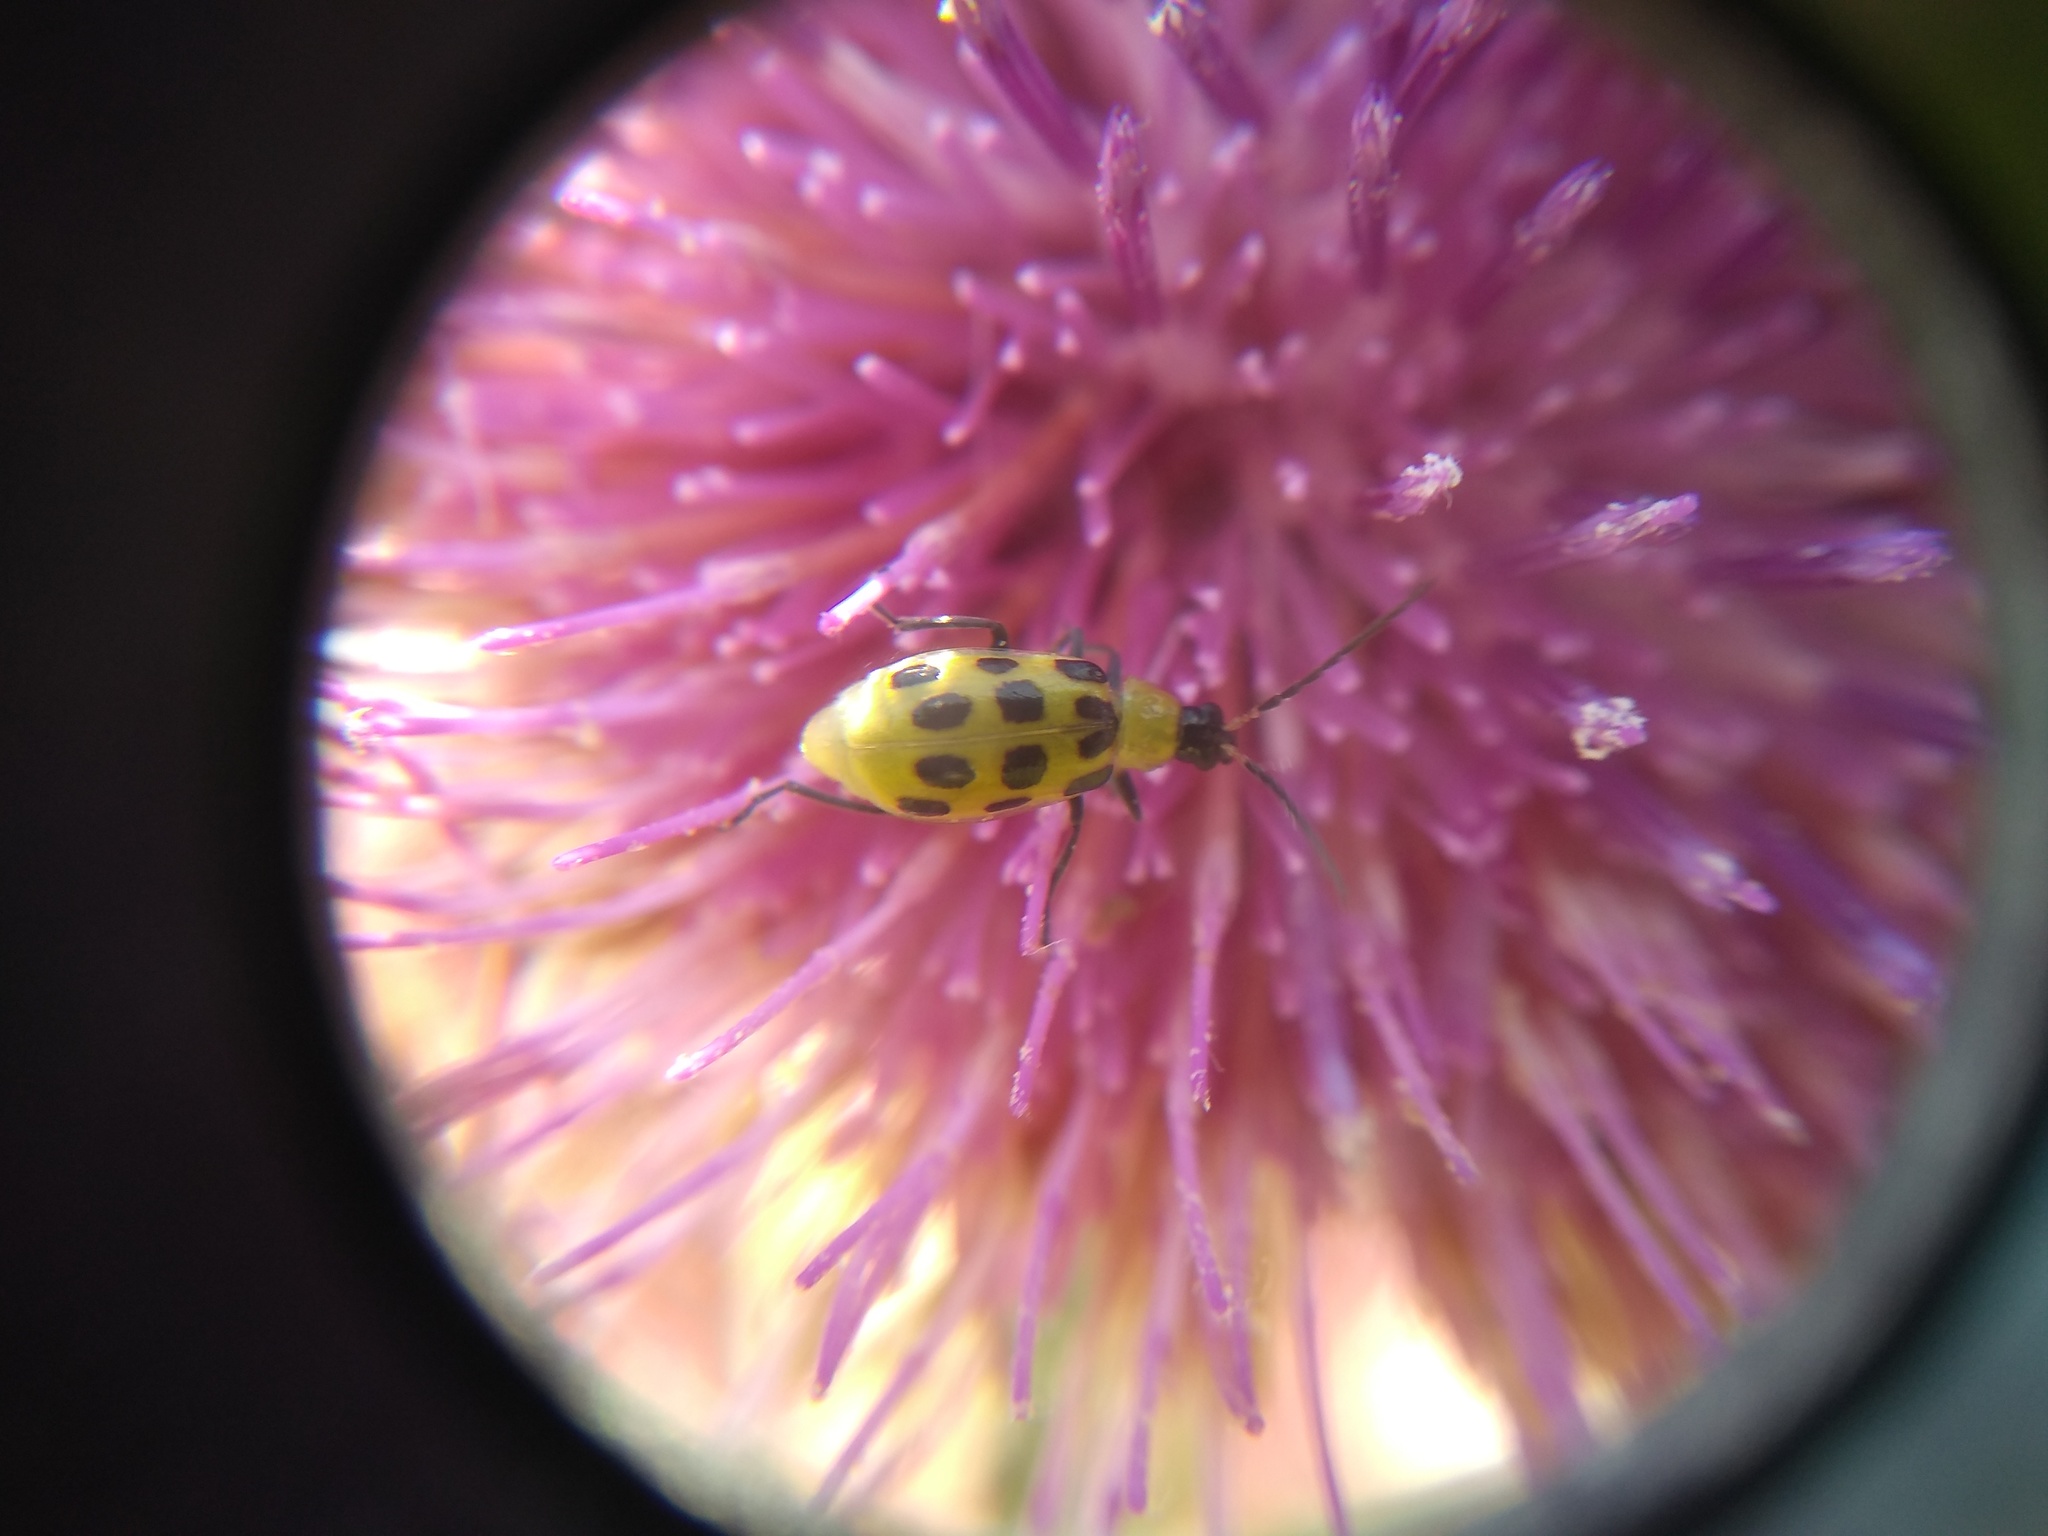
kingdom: Animalia
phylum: Arthropoda
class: Insecta
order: Coleoptera
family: Chrysomelidae
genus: Diabrotica
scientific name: Diabrotica undecimpunctata
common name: Spotted cucumber beetle
